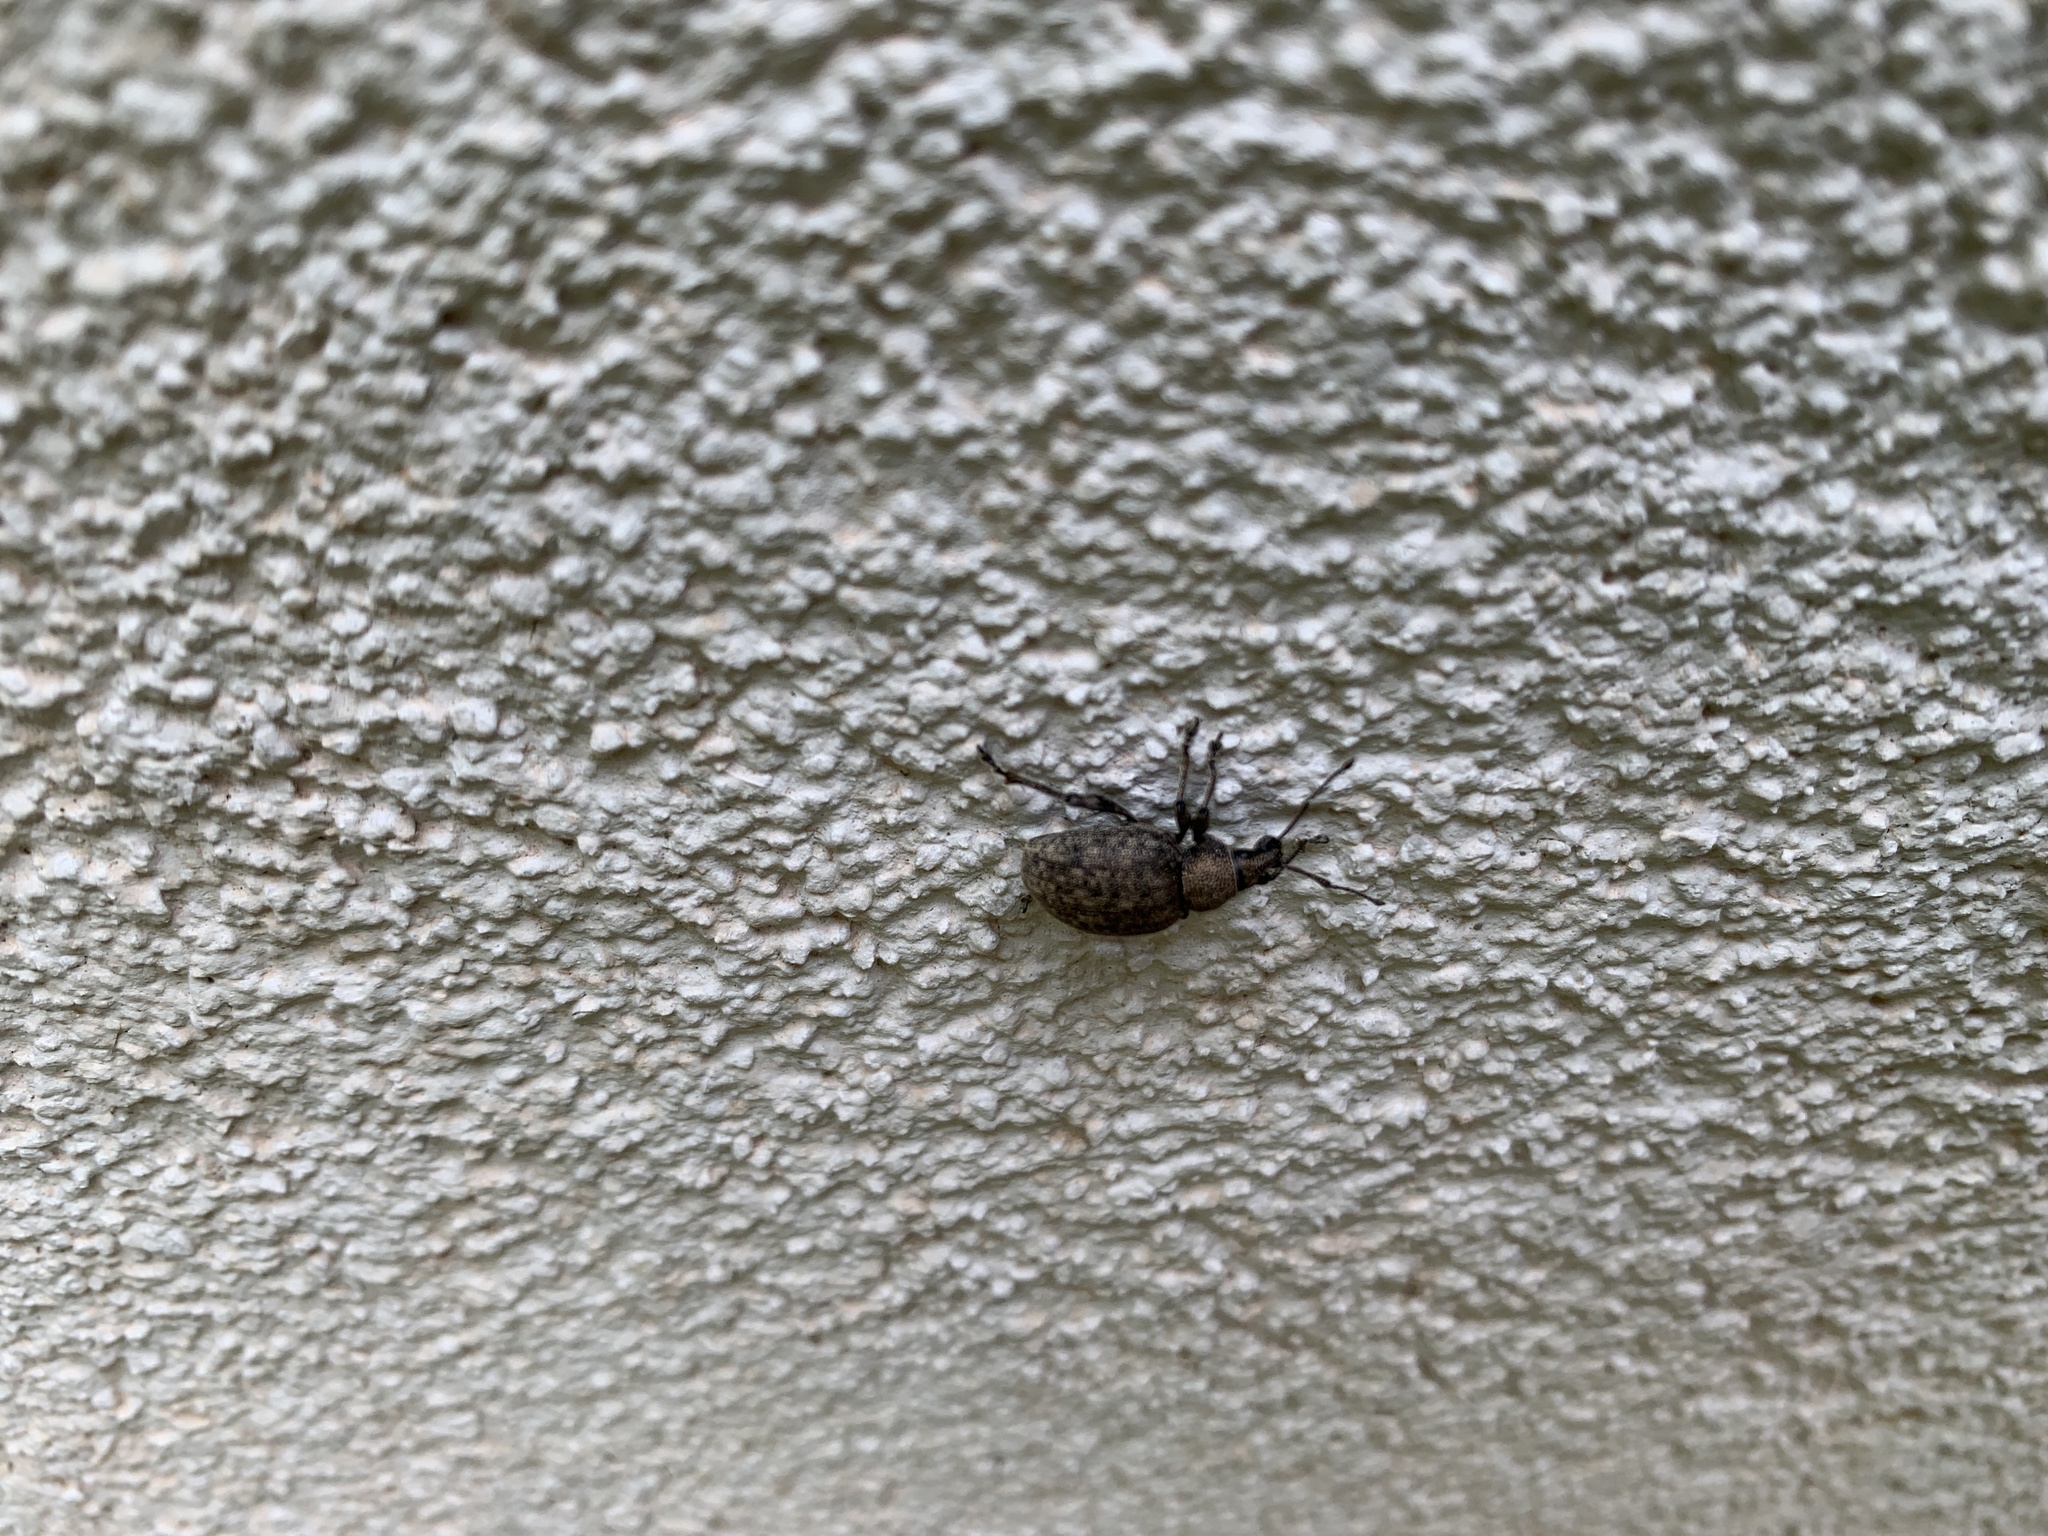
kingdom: Animalia
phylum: Arthropoda
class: Insecta
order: Coleoptera
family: Curculionidae
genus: Otiorhynchus
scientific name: Otiorhynchus ligustici
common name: Weevil
